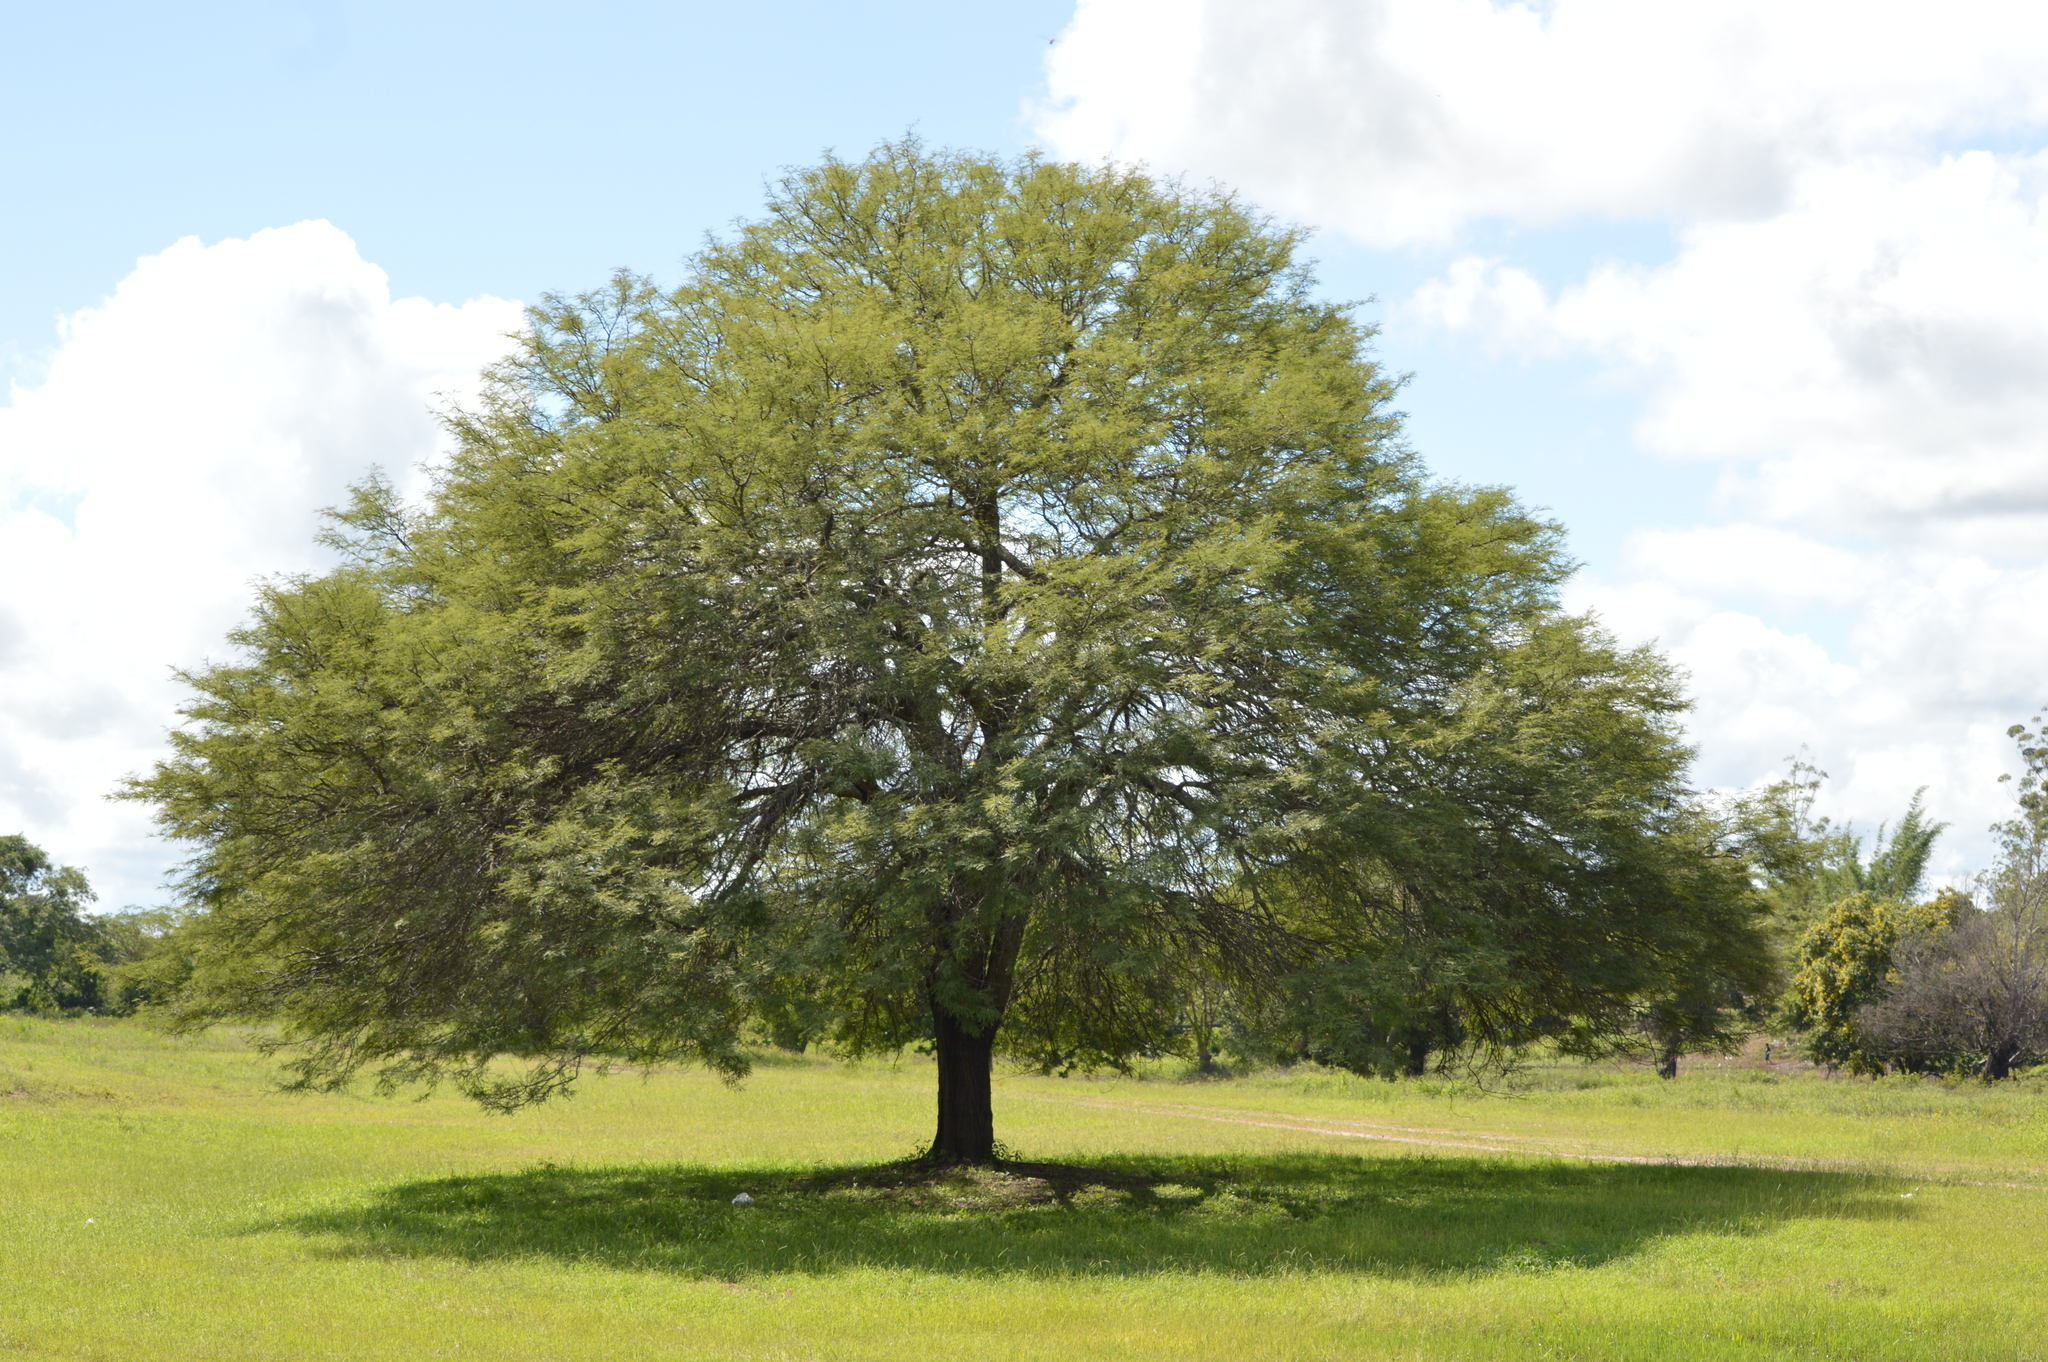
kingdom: Plantae
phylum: Tracheophyta
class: Magnoliopsida
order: Fabales
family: Fabaceae
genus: Prosopis
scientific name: Prosopis alba
